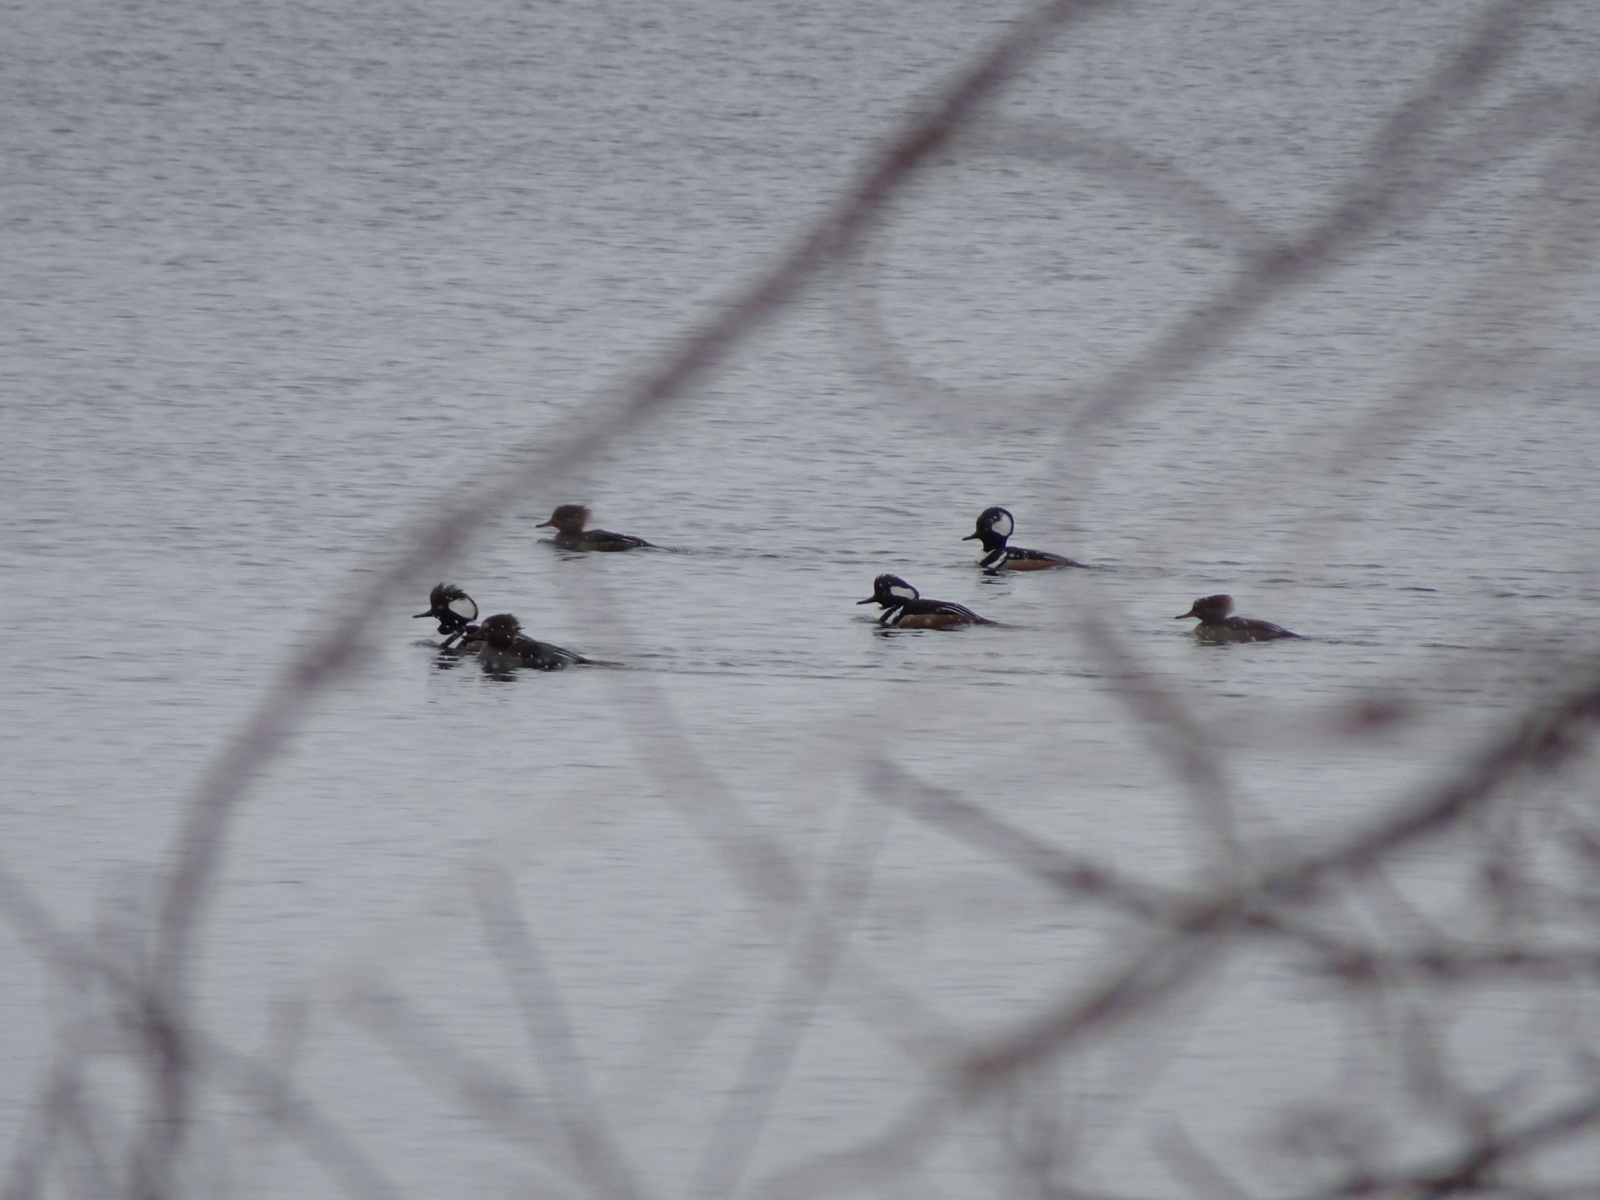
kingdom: Animalia
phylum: Chordata
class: Aves
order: Anseriformes
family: Anatidae
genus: Lophodytes
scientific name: Lophodytes cucullatus
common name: Hooded merganser
